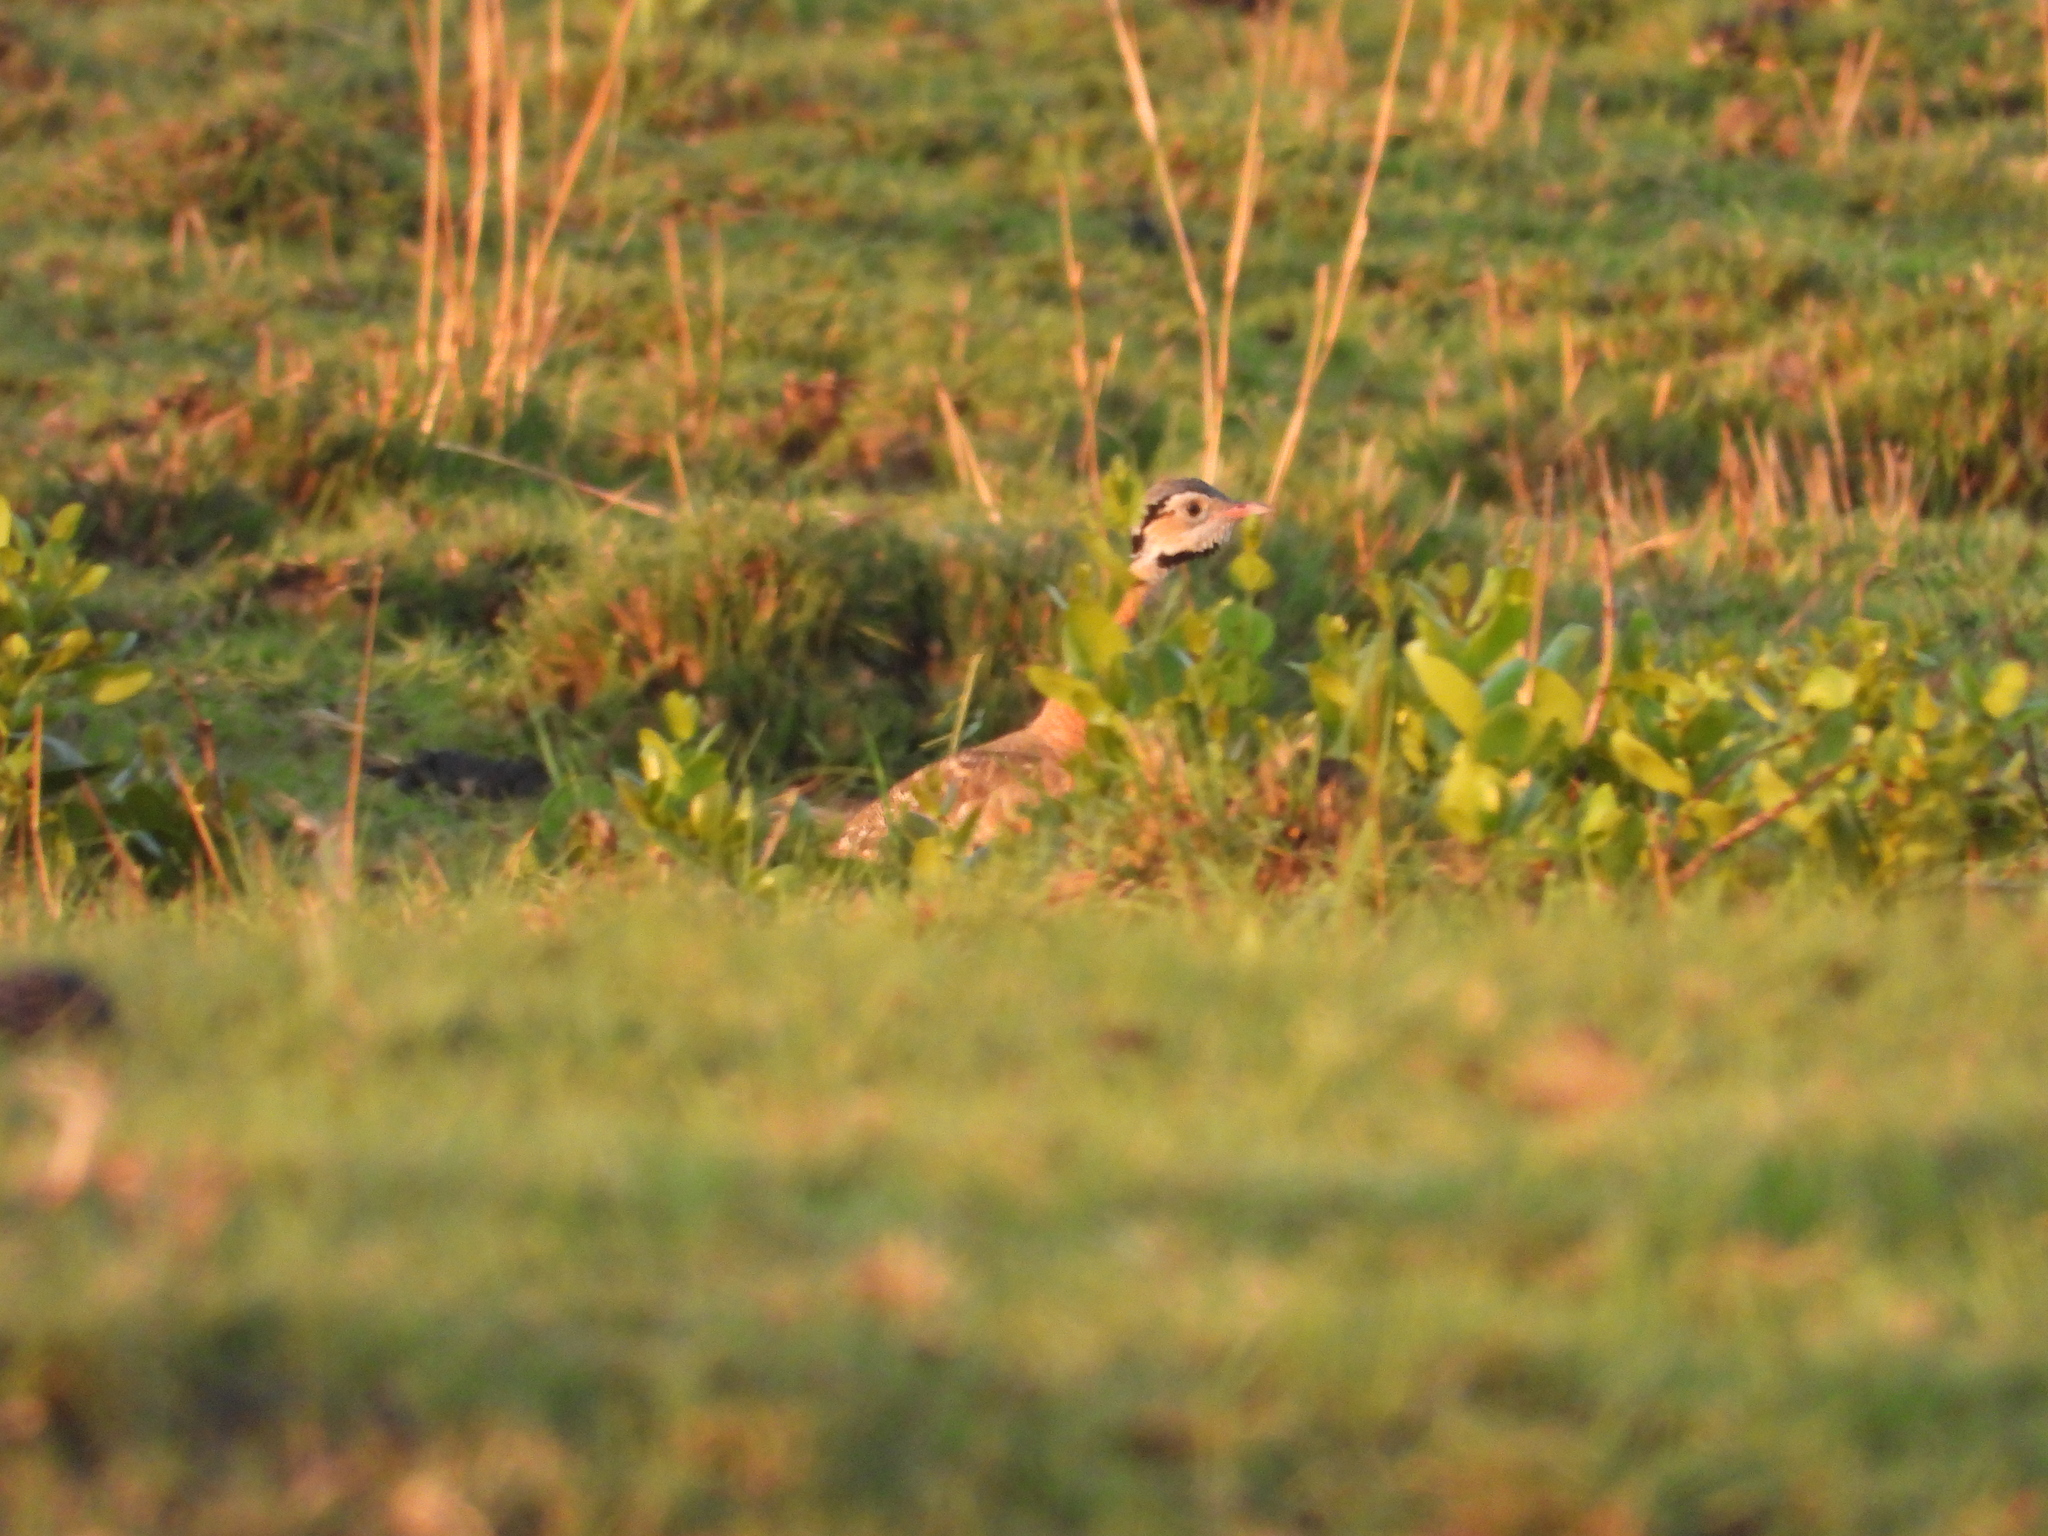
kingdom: Animalia
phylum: Chordata
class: Aves
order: Otidiformes
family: Otididae
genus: Eupodotis
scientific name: Eupodotis senegalensis
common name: White-bellied bustard
